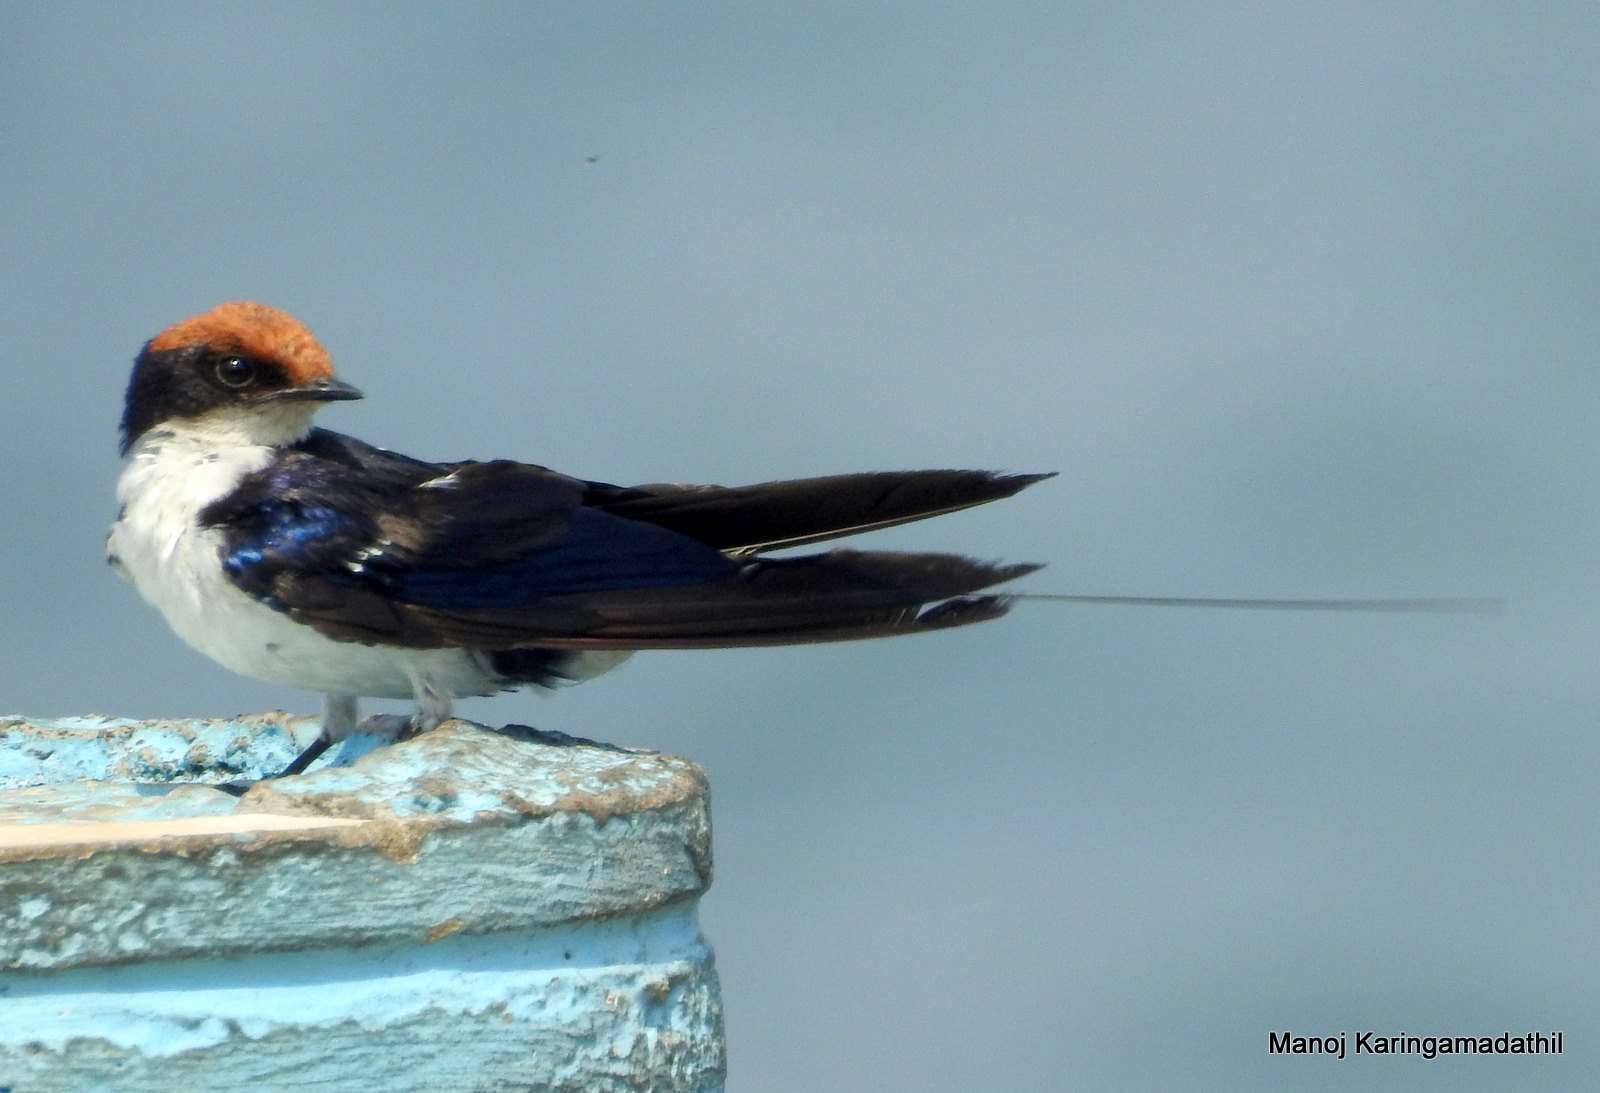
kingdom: Animalia
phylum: Chordata
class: Aves
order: Passeriformes
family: Hirundinidae
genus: Hirundo
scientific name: Hirundo smithii
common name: Wire-tailed swallow
